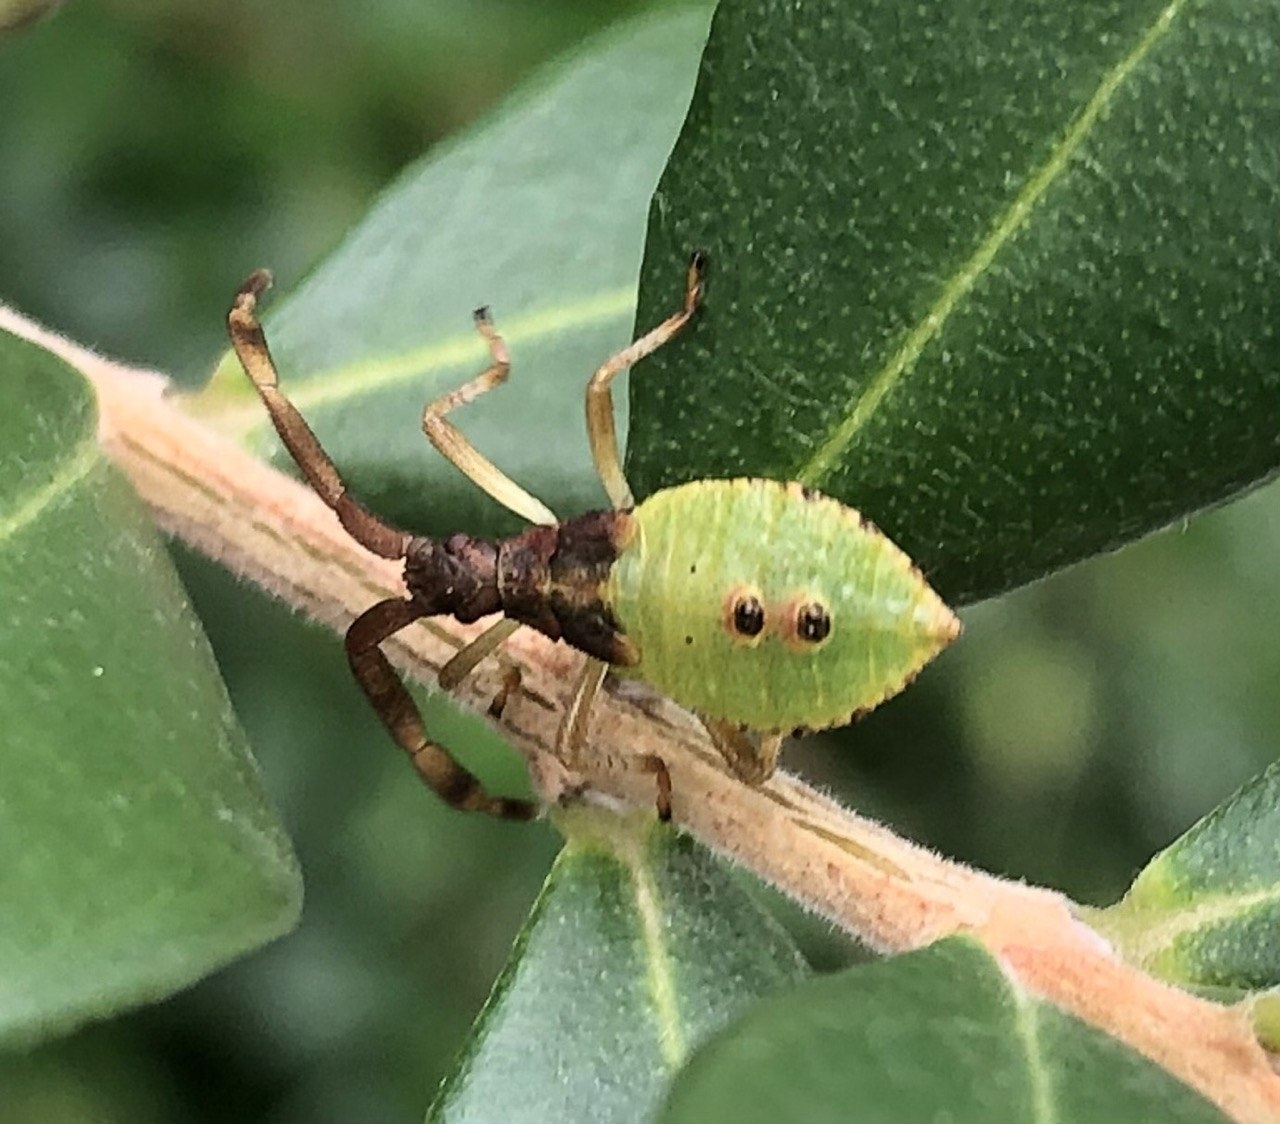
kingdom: Animalia
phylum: Arthropoda
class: Insecta
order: Hemiptera
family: Coreidae
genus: Gonocerus
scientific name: Gonocerus acuteangulatus
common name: Box bug
